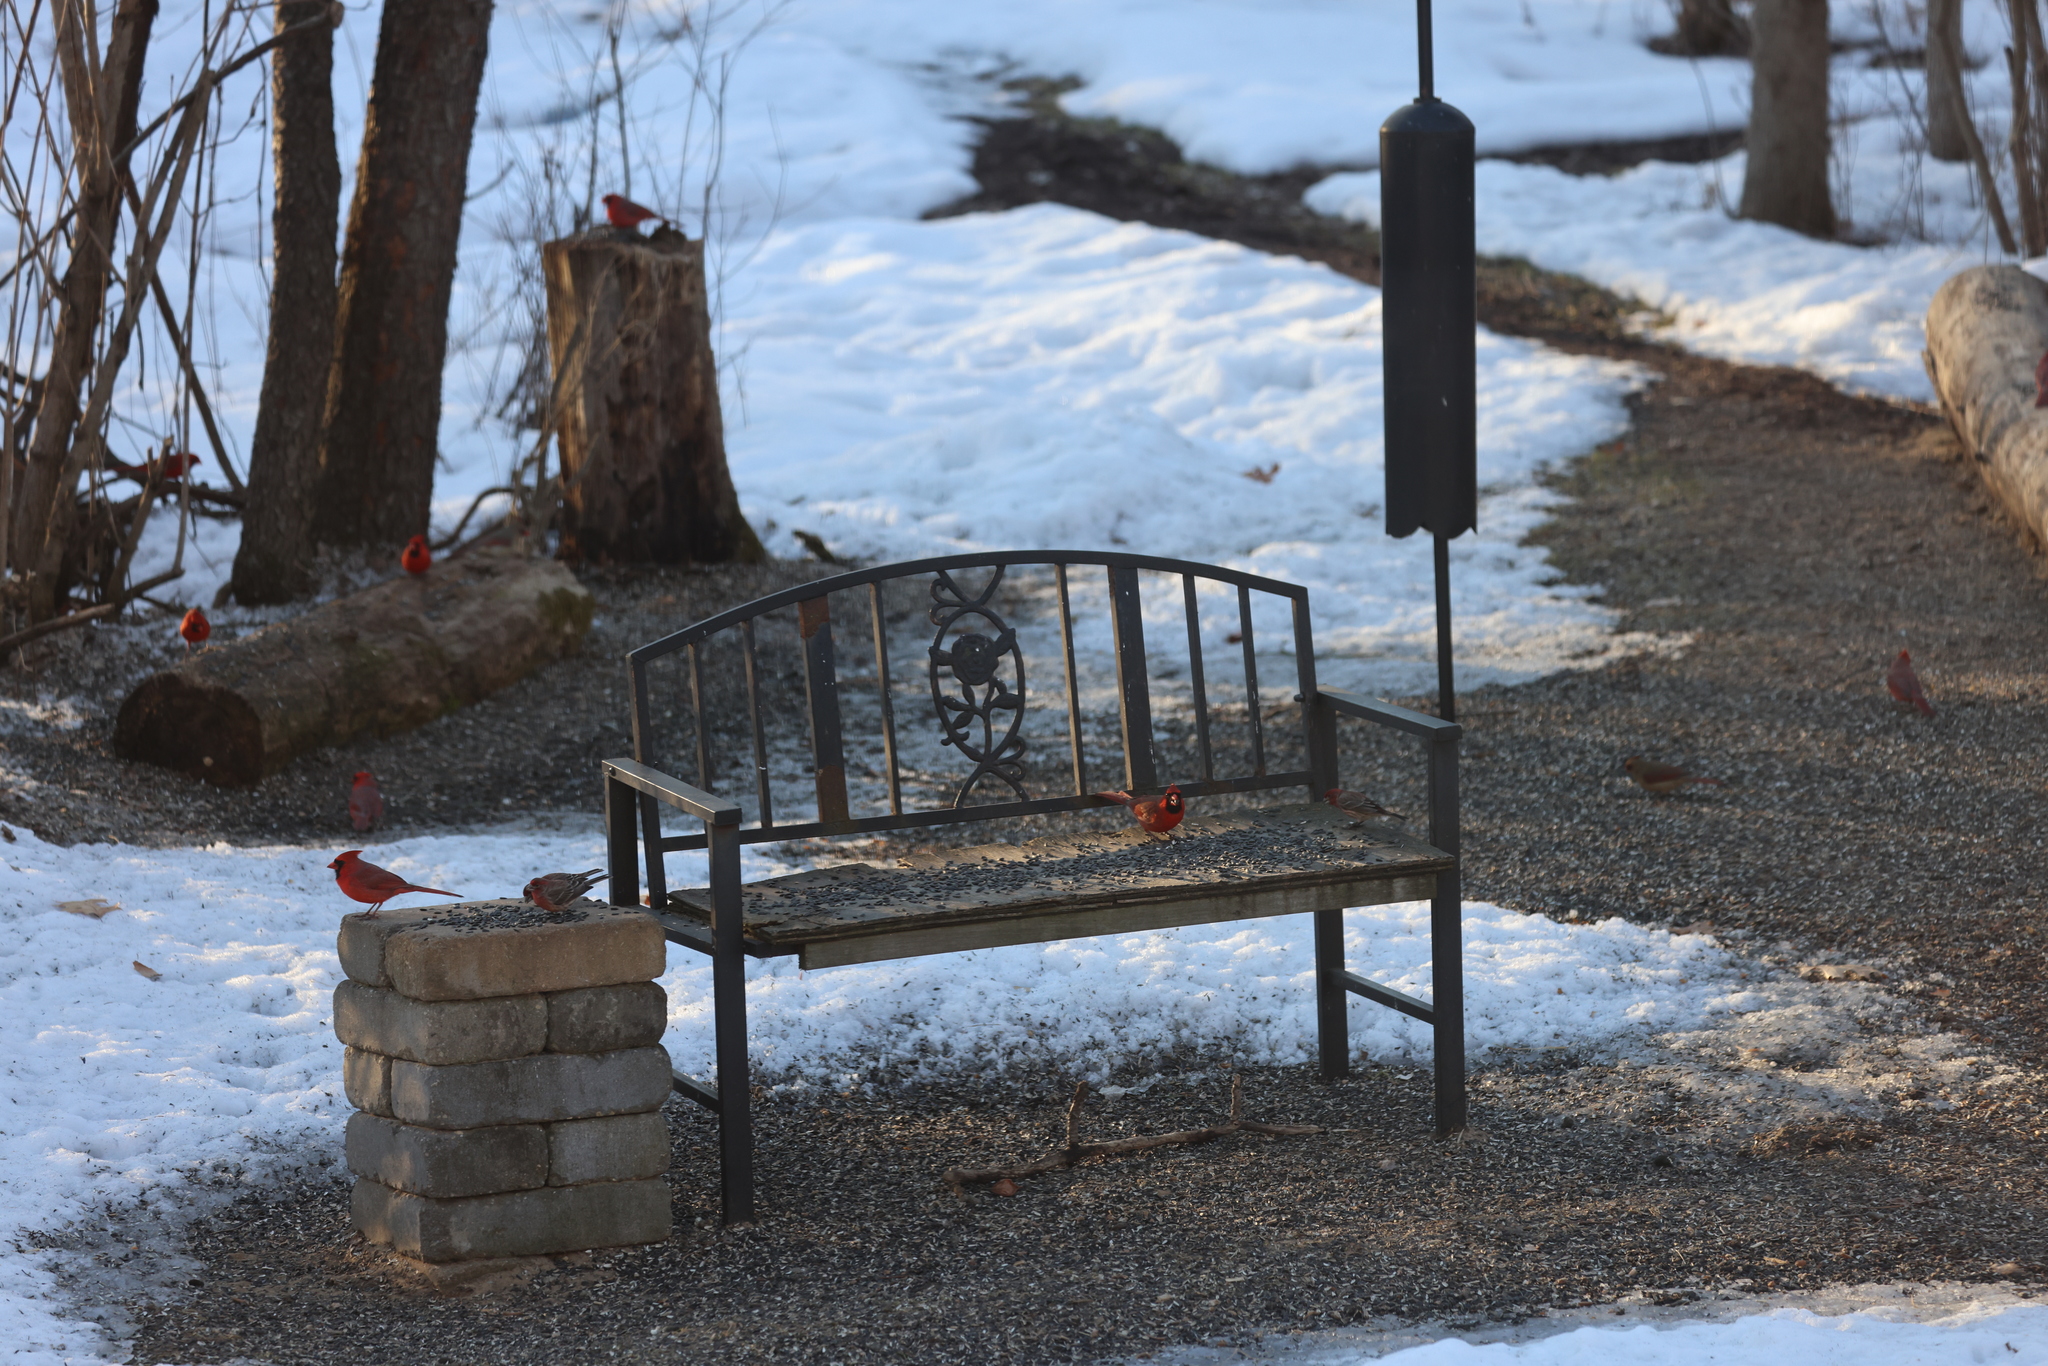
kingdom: Animalia
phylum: Chordata
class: Aves
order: Passeriformes
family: Cardinalidae
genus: Cardinalis
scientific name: Cardinalis cardinalis
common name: Northern cardinal
